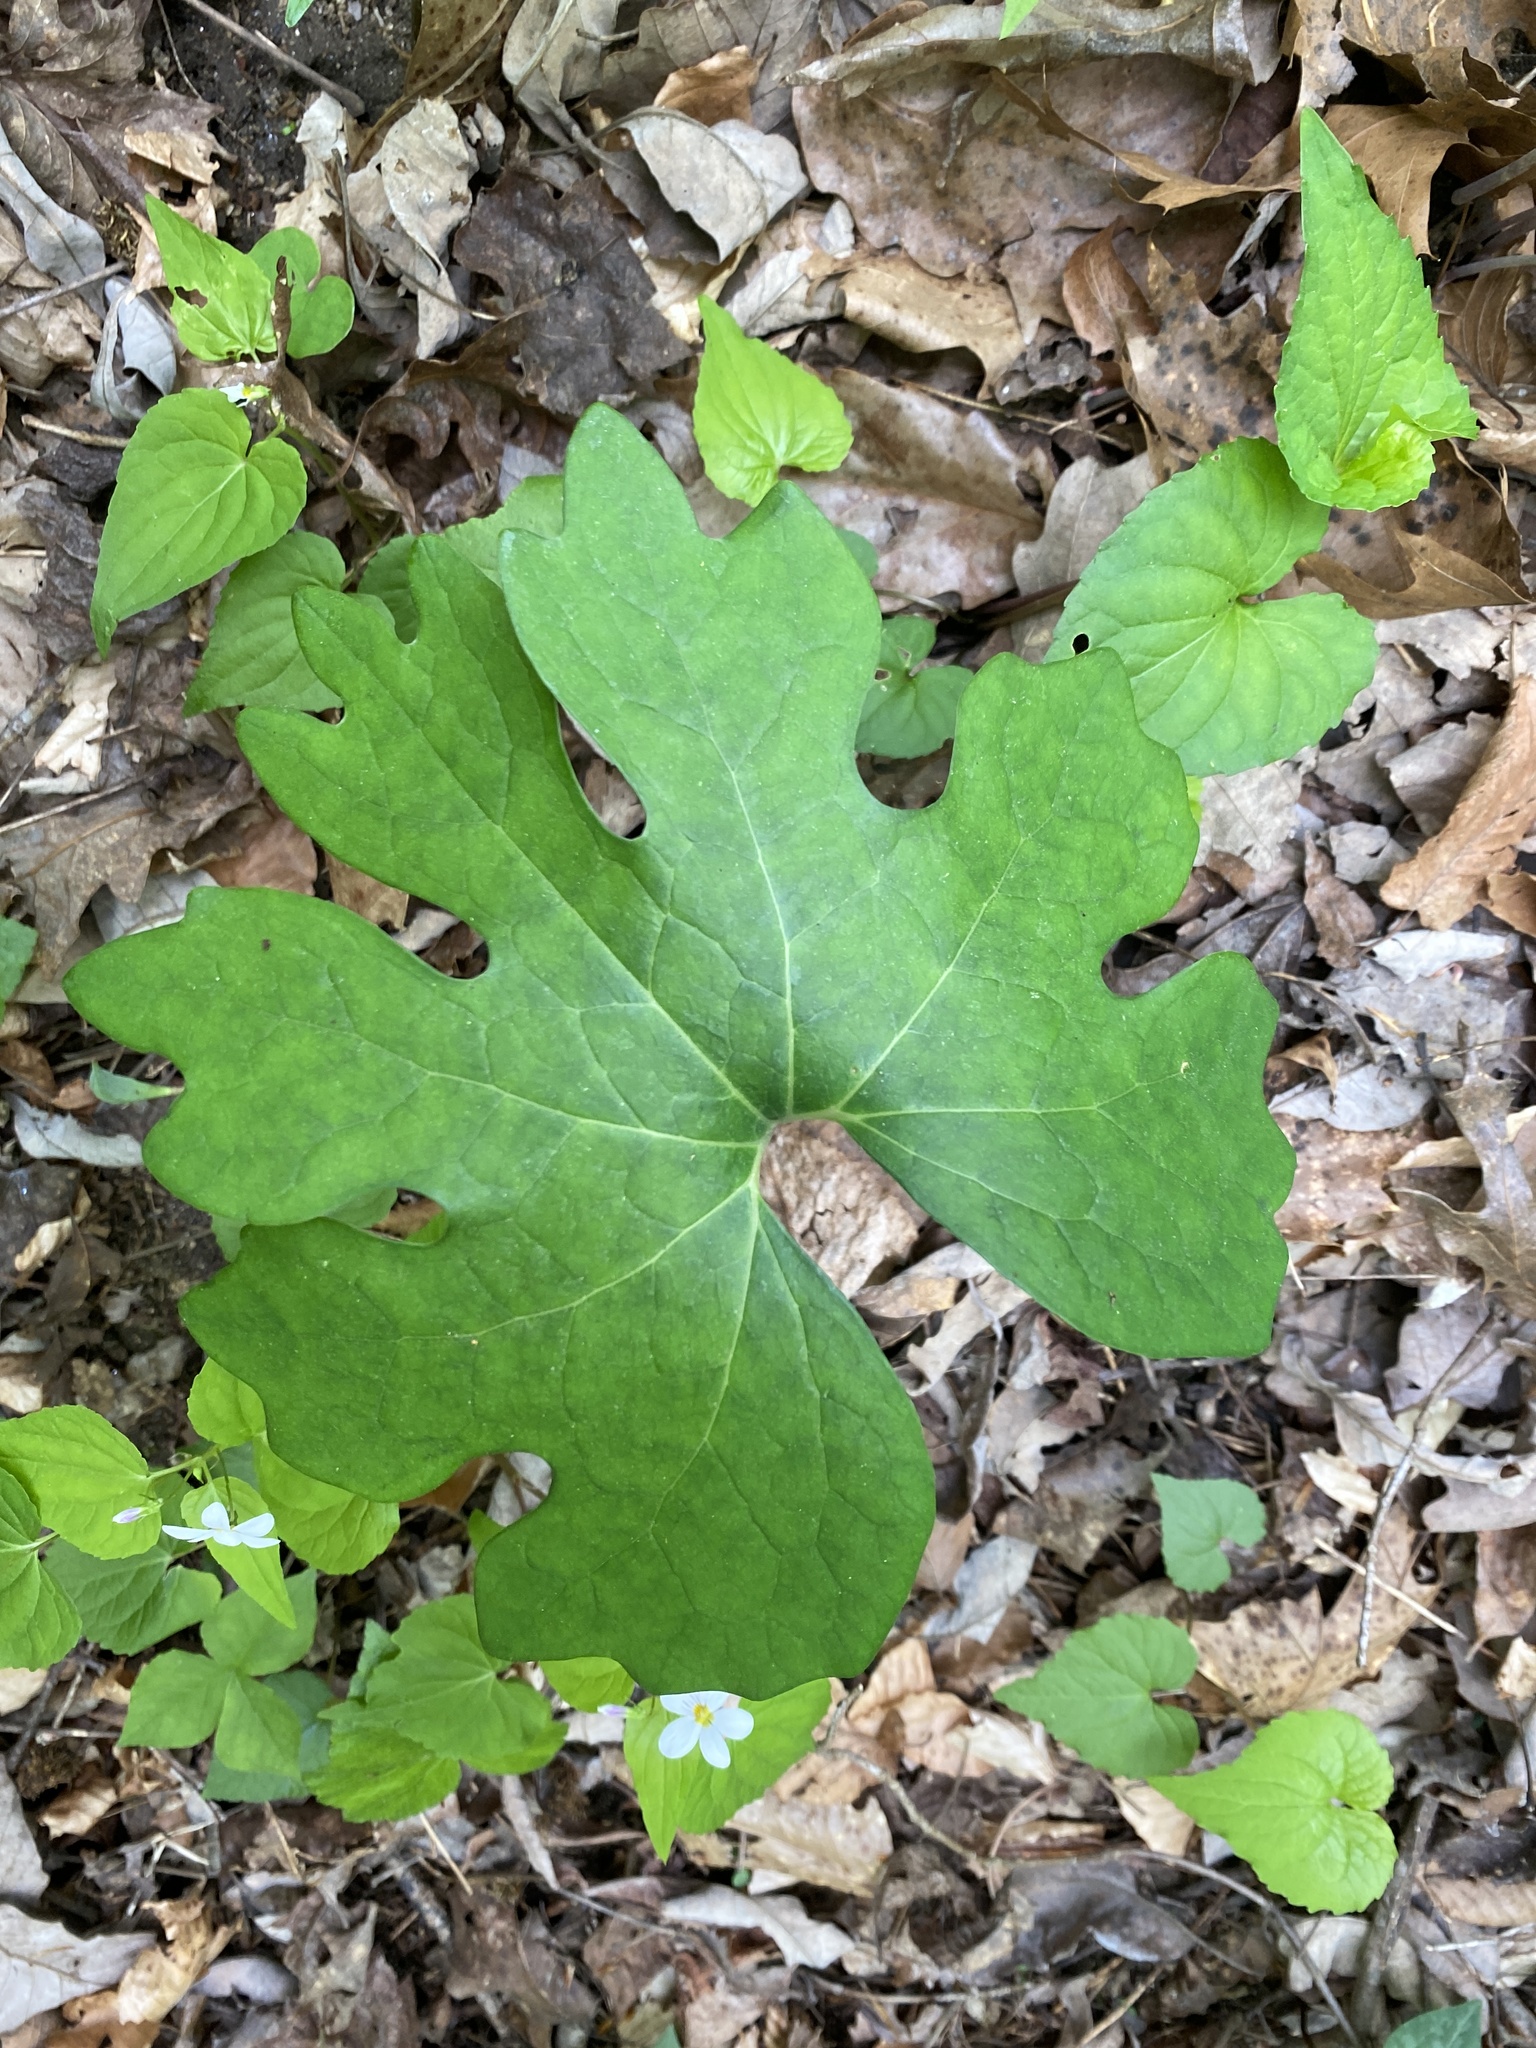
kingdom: Plantae
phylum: Tracheophyta
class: Magnoliopsida
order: Ranunculales
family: Papaveraceae
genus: Sanguinaria
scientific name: Sanguinaria canadensis
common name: Bloodroot
